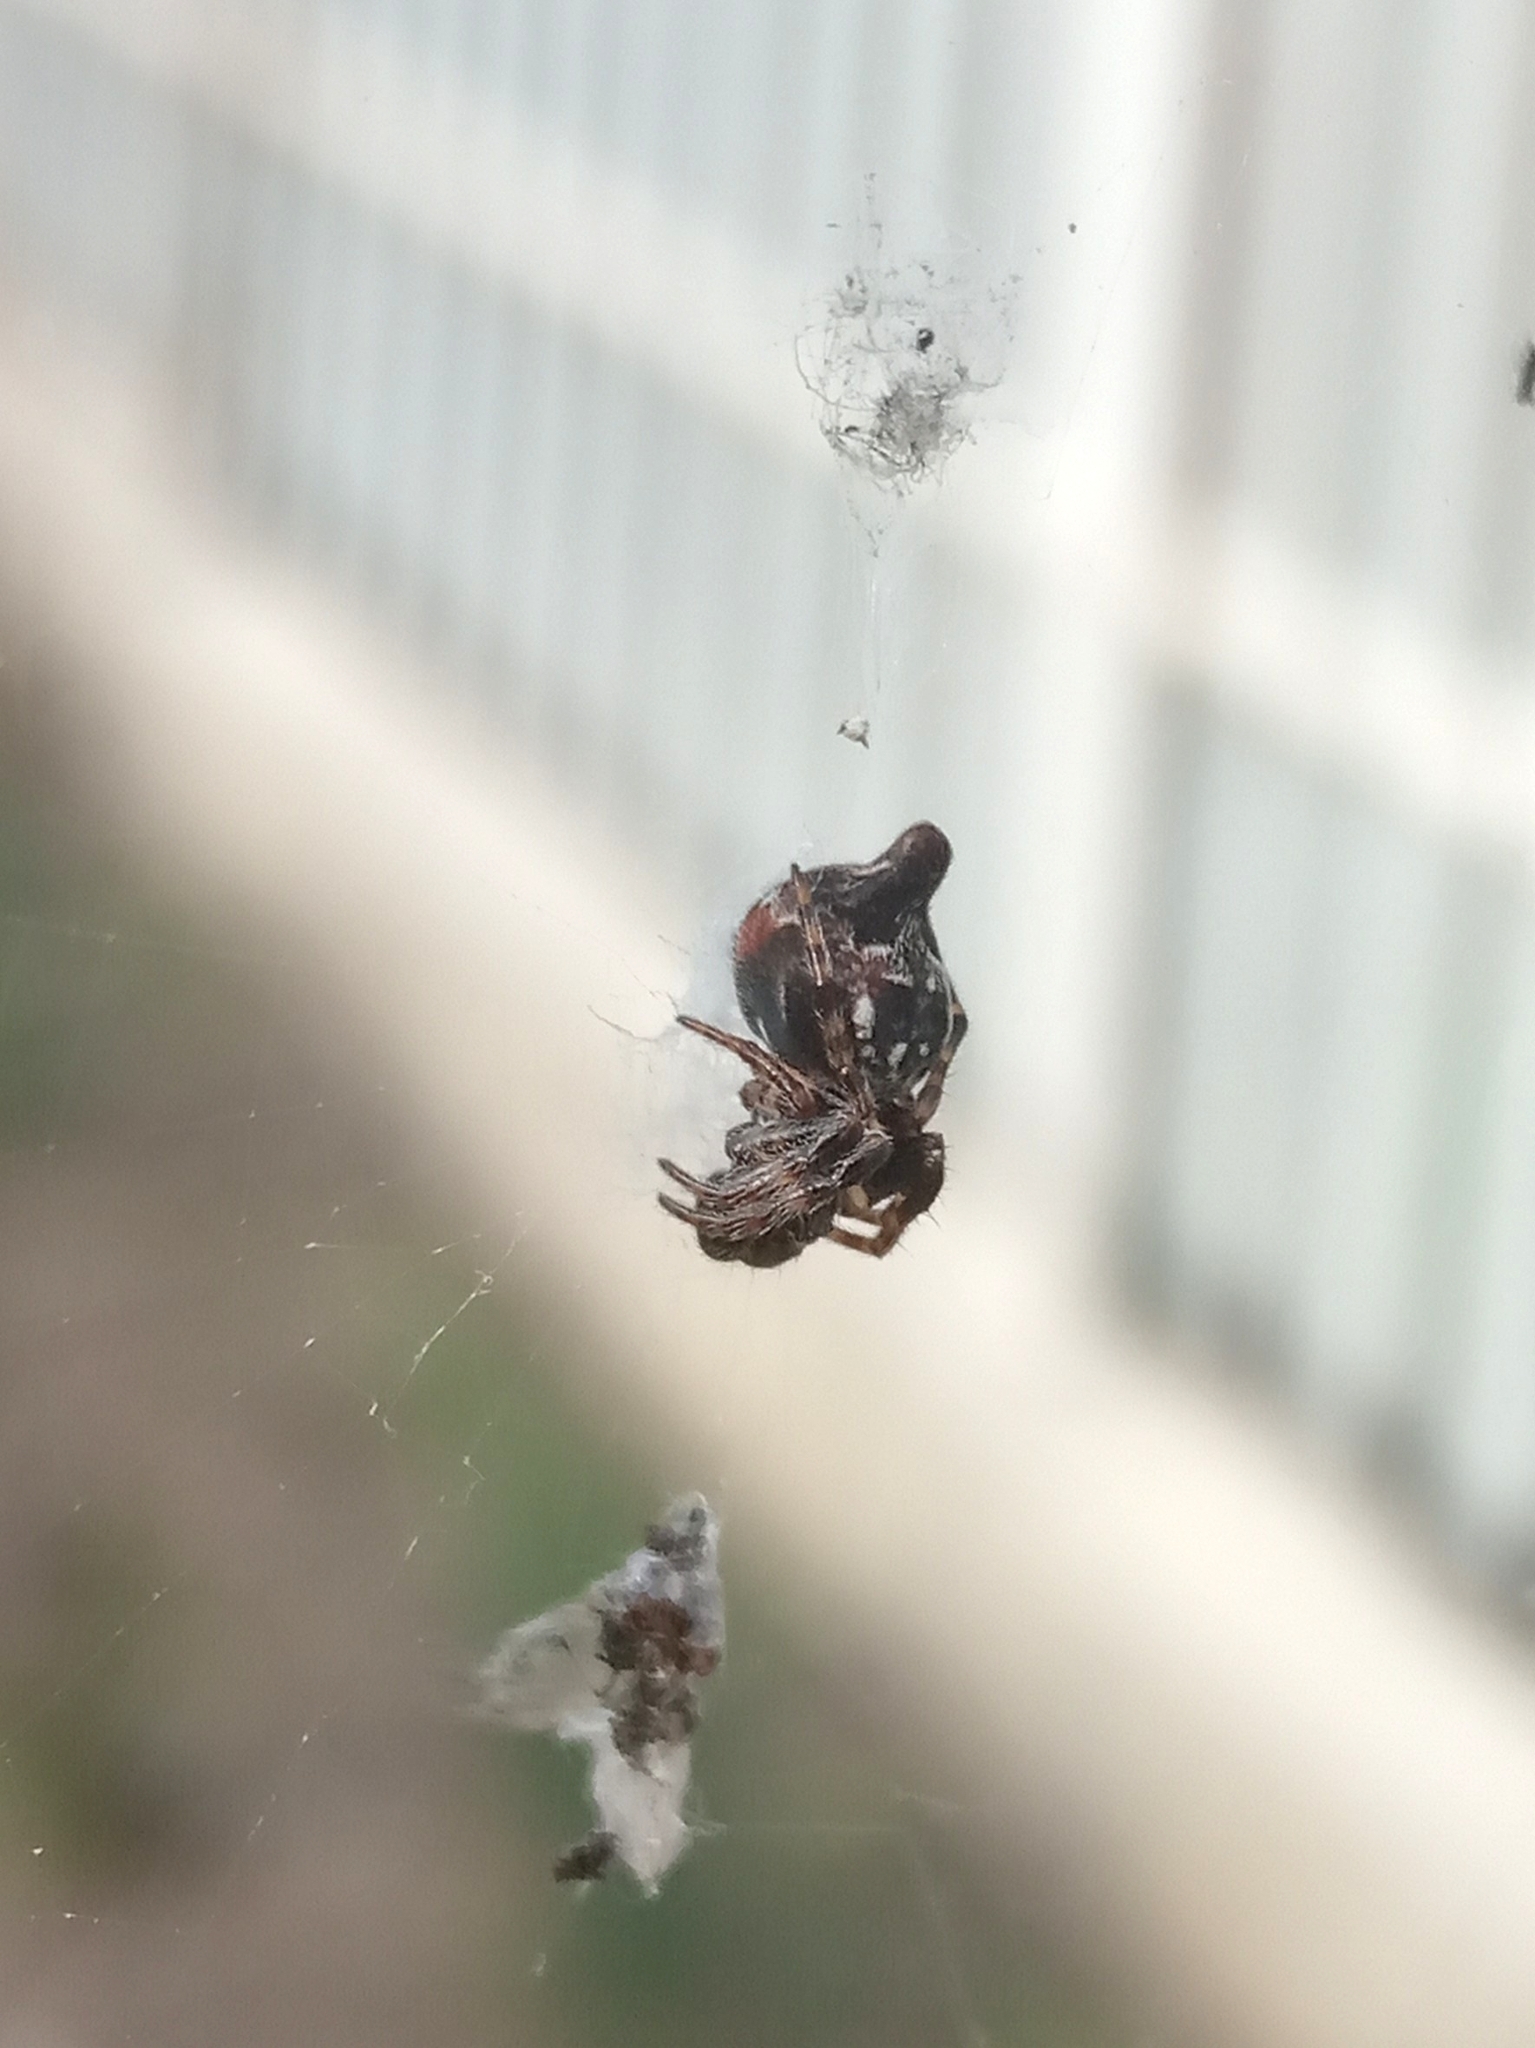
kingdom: Animalia
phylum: Arthropoda
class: Arachnida
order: Araneae
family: Araneidae
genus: Cyclosa
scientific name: Cyclosa sierrae
